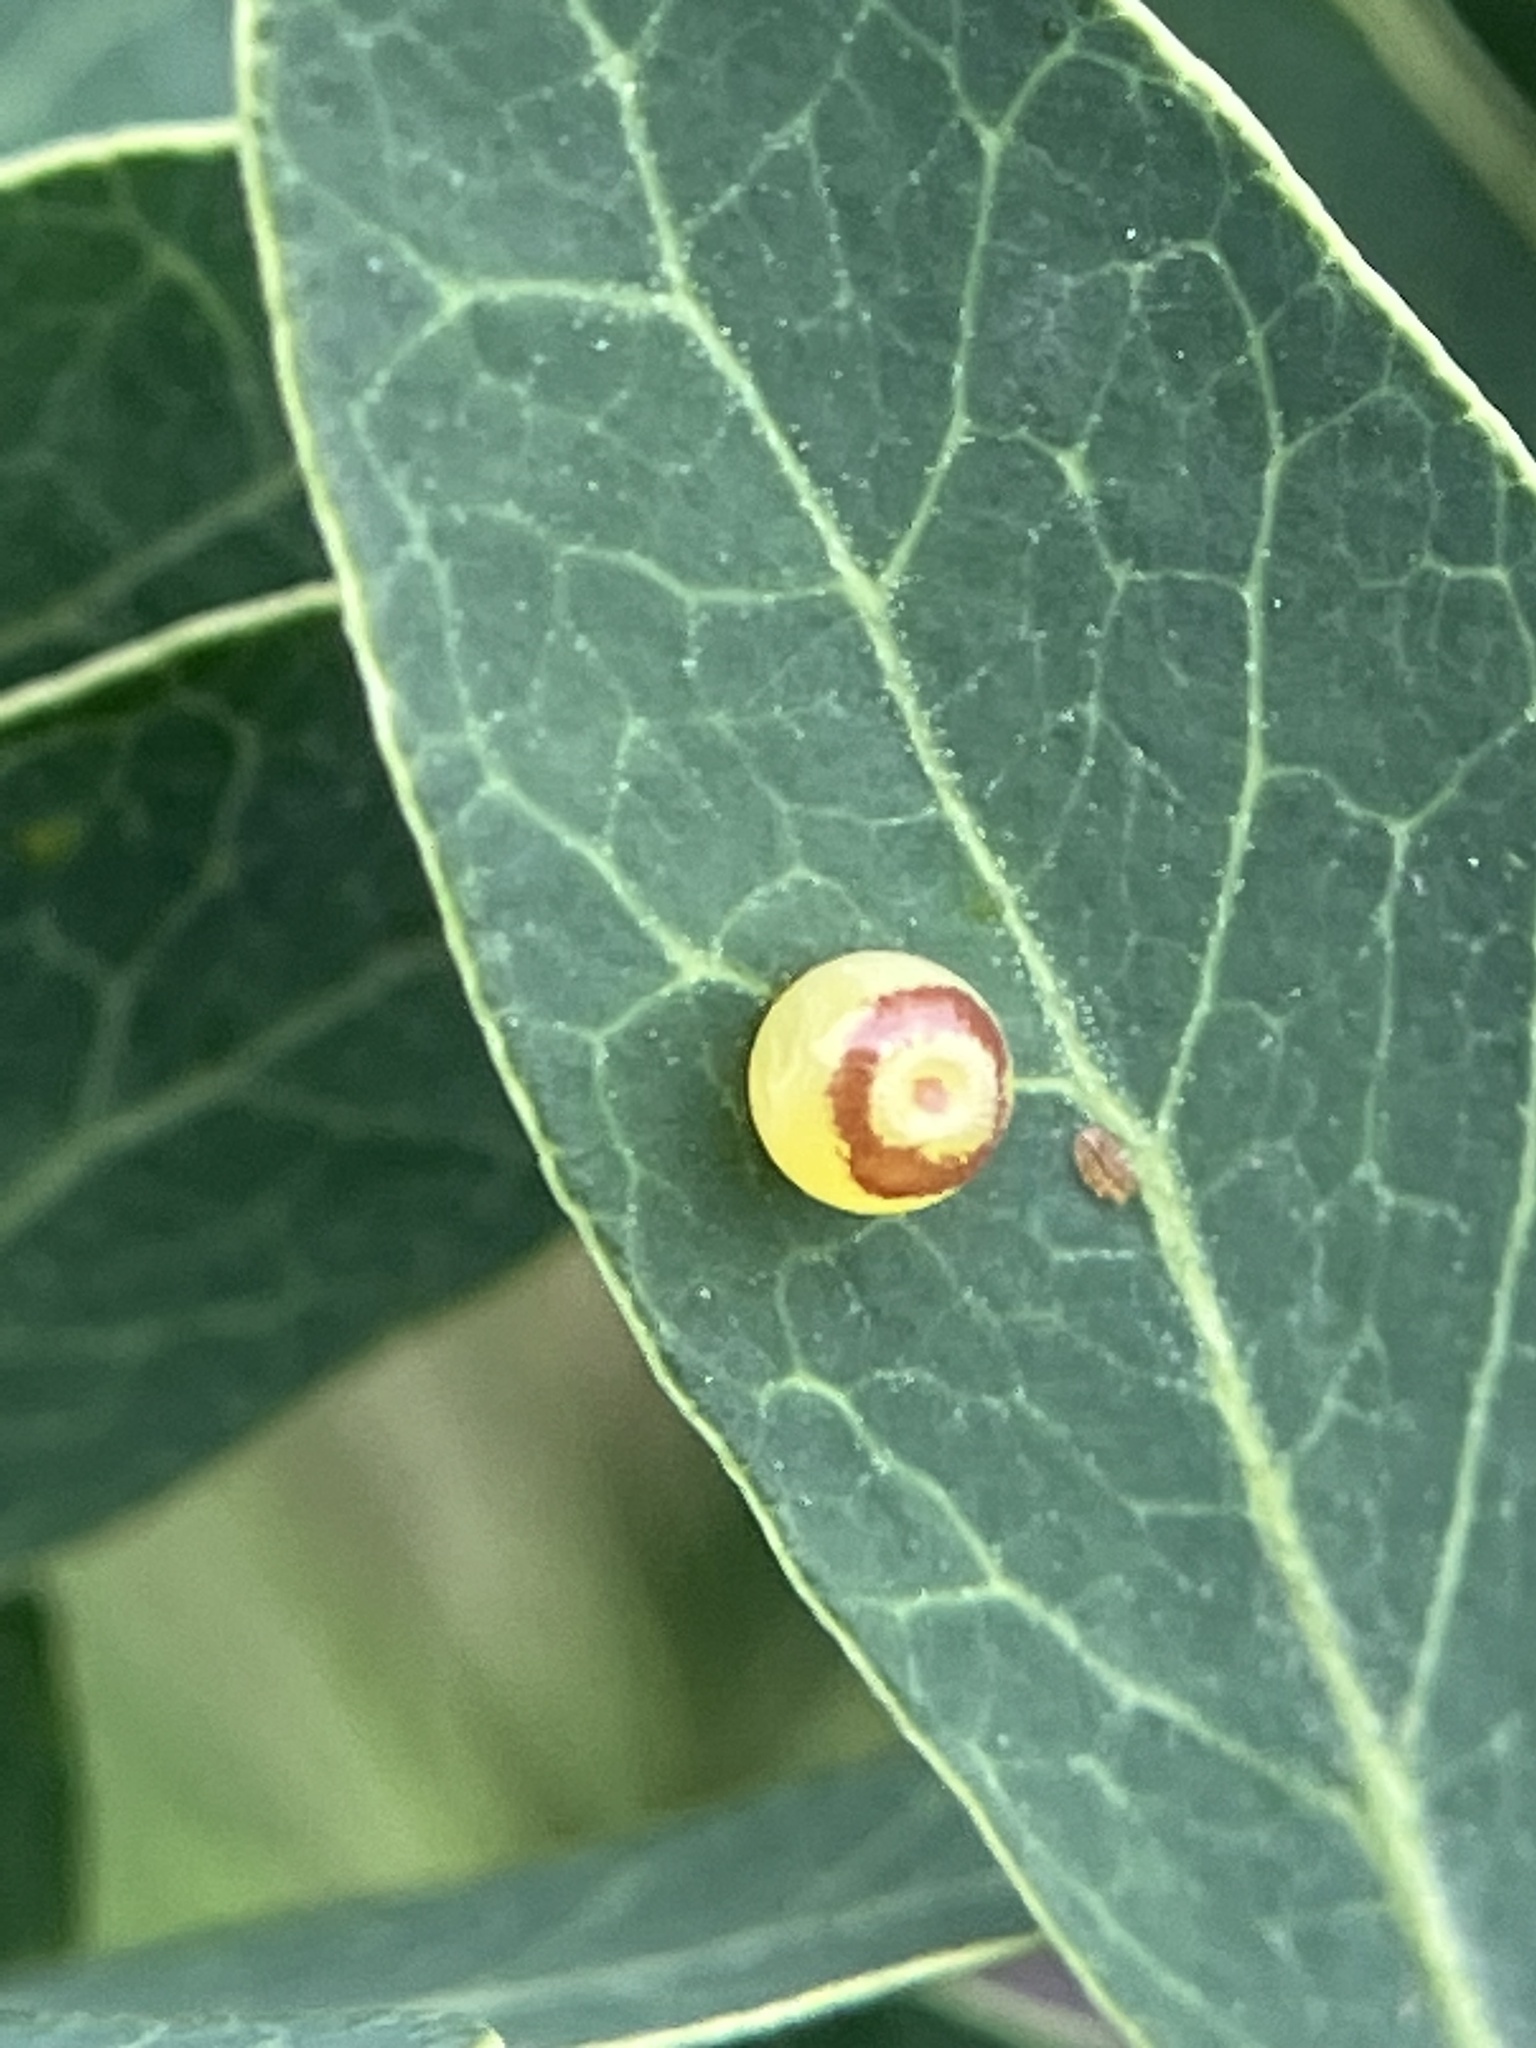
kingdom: Animalia
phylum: Arthropoda
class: Insecta
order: Lepidoptera
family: Nymphalidae
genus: Charaxes
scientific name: Charaxes solon
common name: Black rajah
